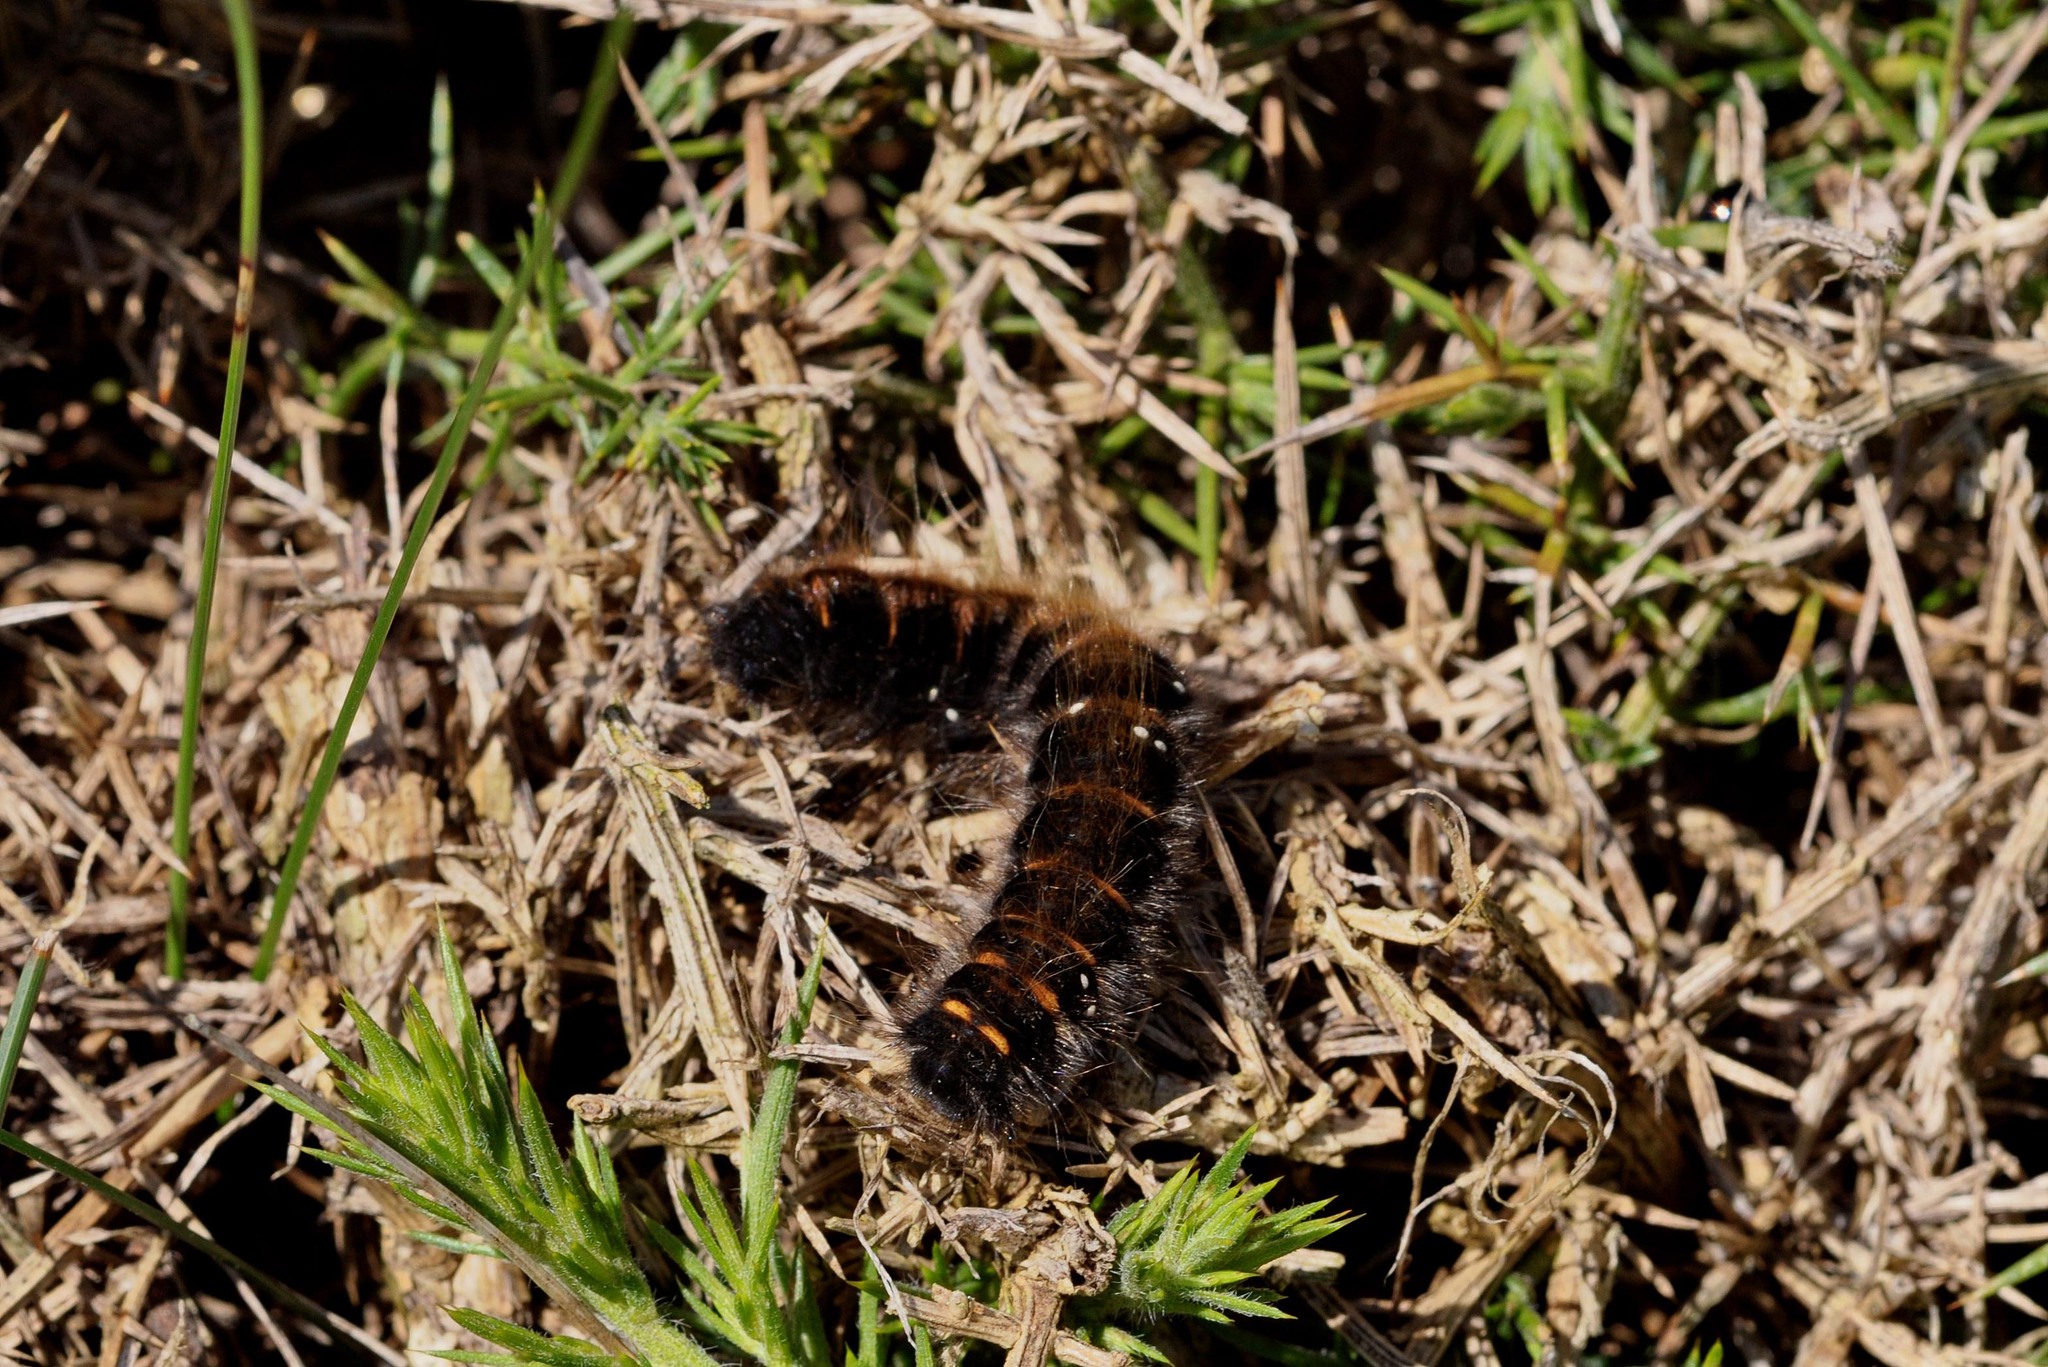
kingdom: Animalia
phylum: Arthropoda
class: Insecta
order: Lepidoptera
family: Lasiocampidae
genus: Macrothylacia
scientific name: Macrothylacia rubi
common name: Fox moth
